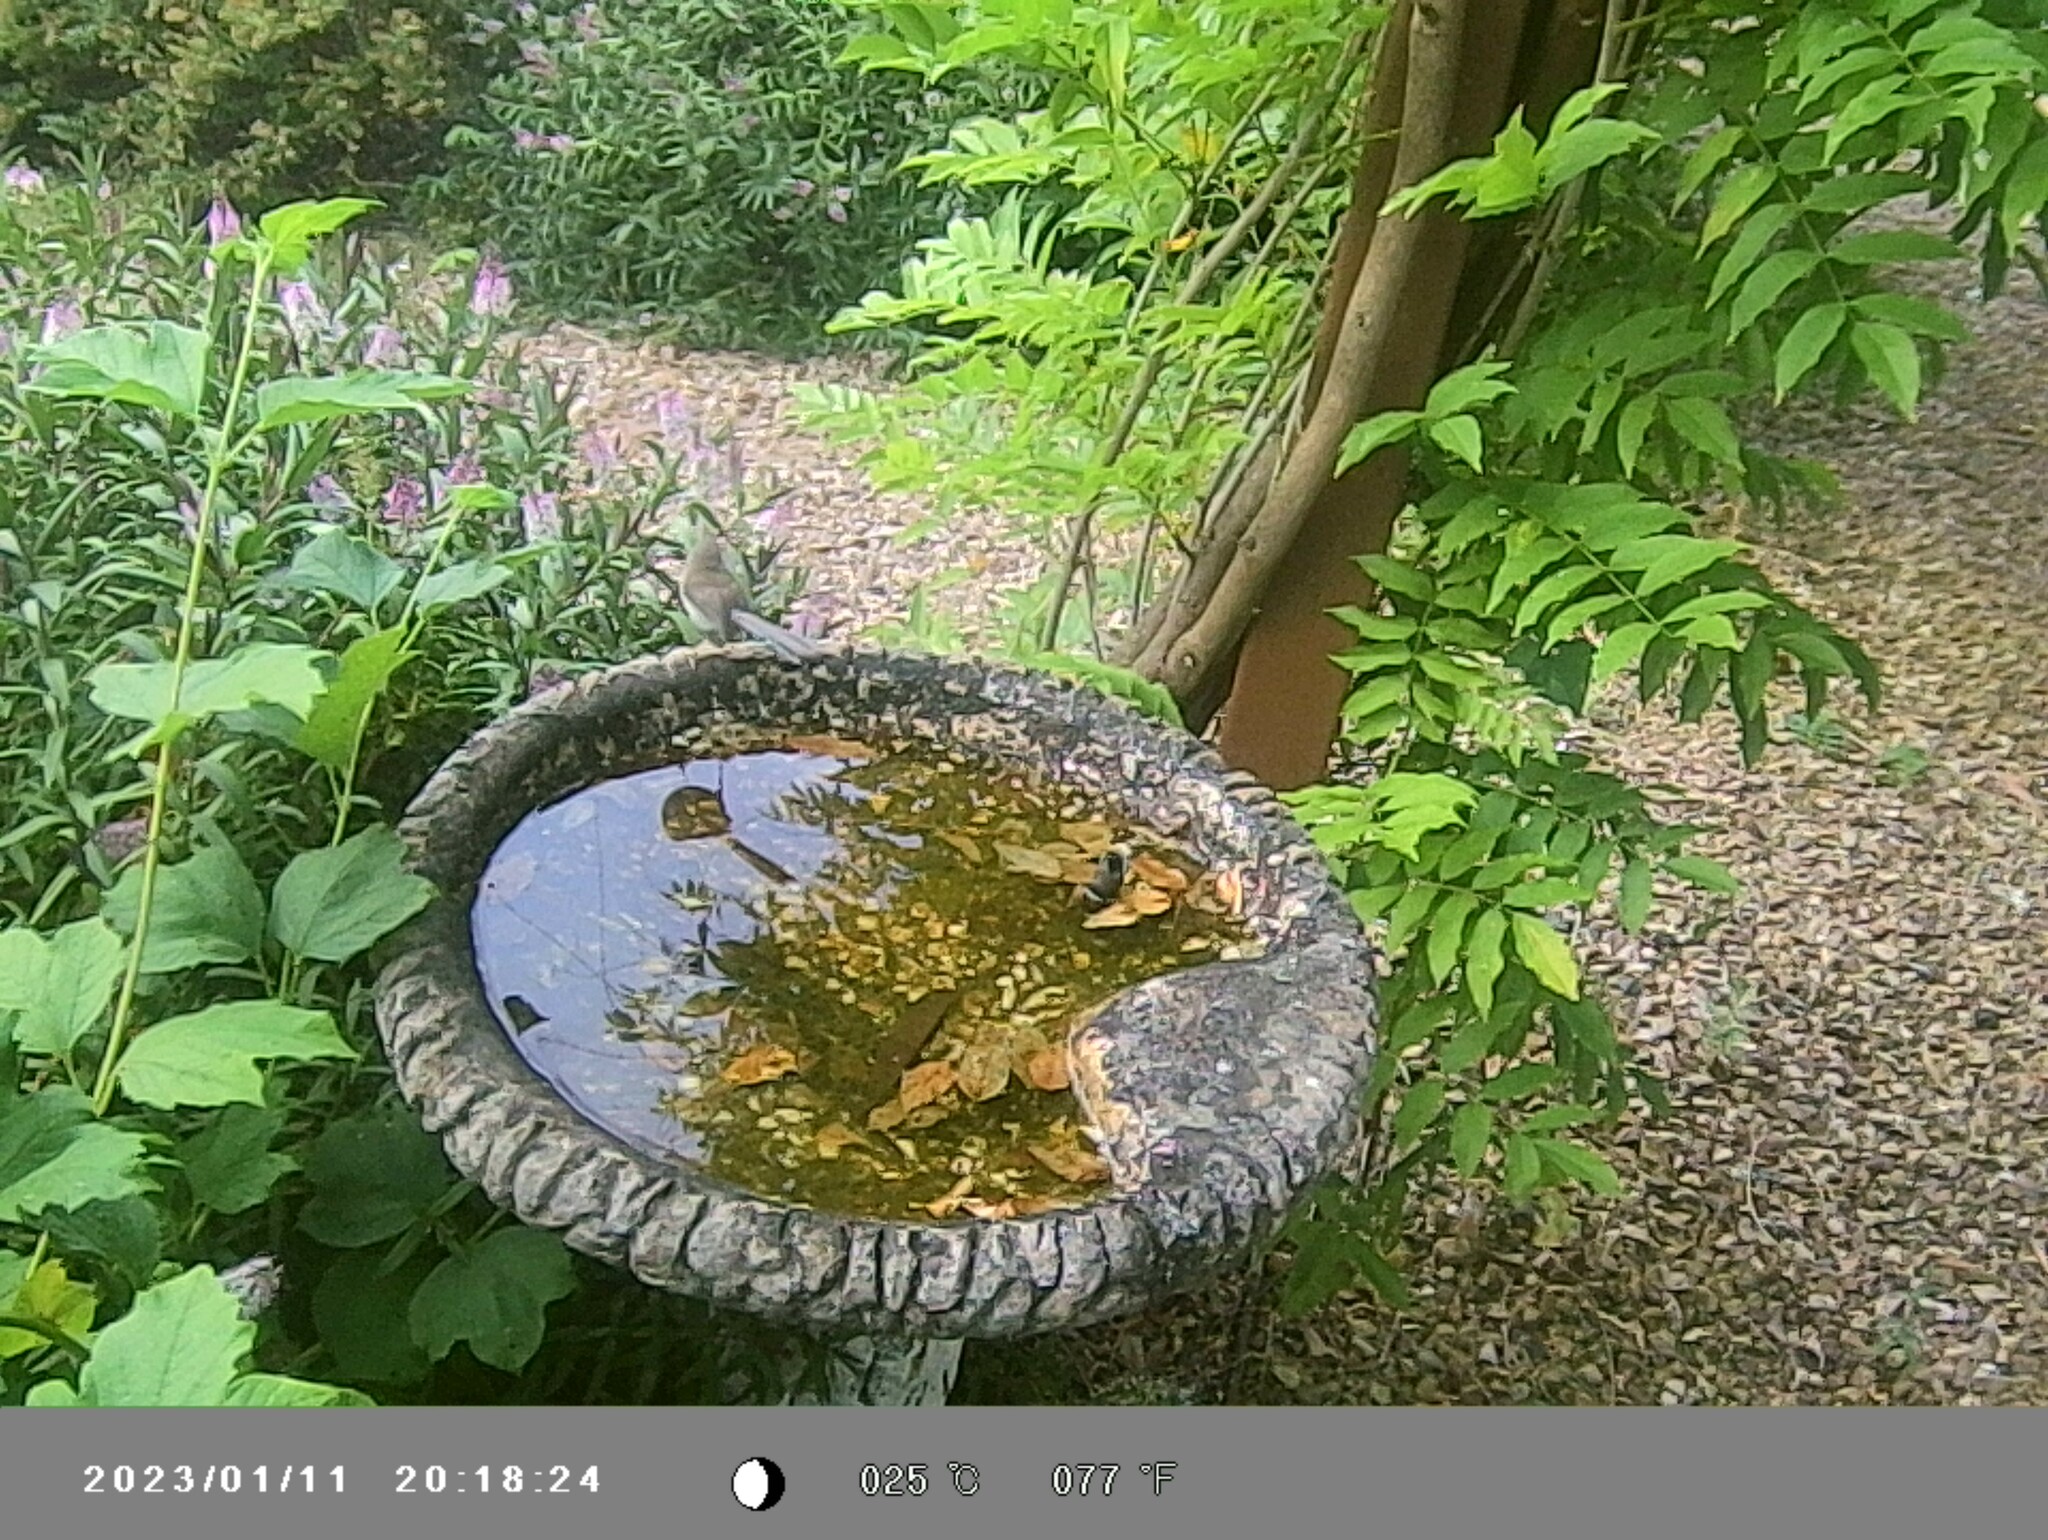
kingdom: Animalia
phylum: Chordata
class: Aves
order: Passeriformes
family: Maluridae
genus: Malurus
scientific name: Malurus cyaneus
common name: Superb fairywren
